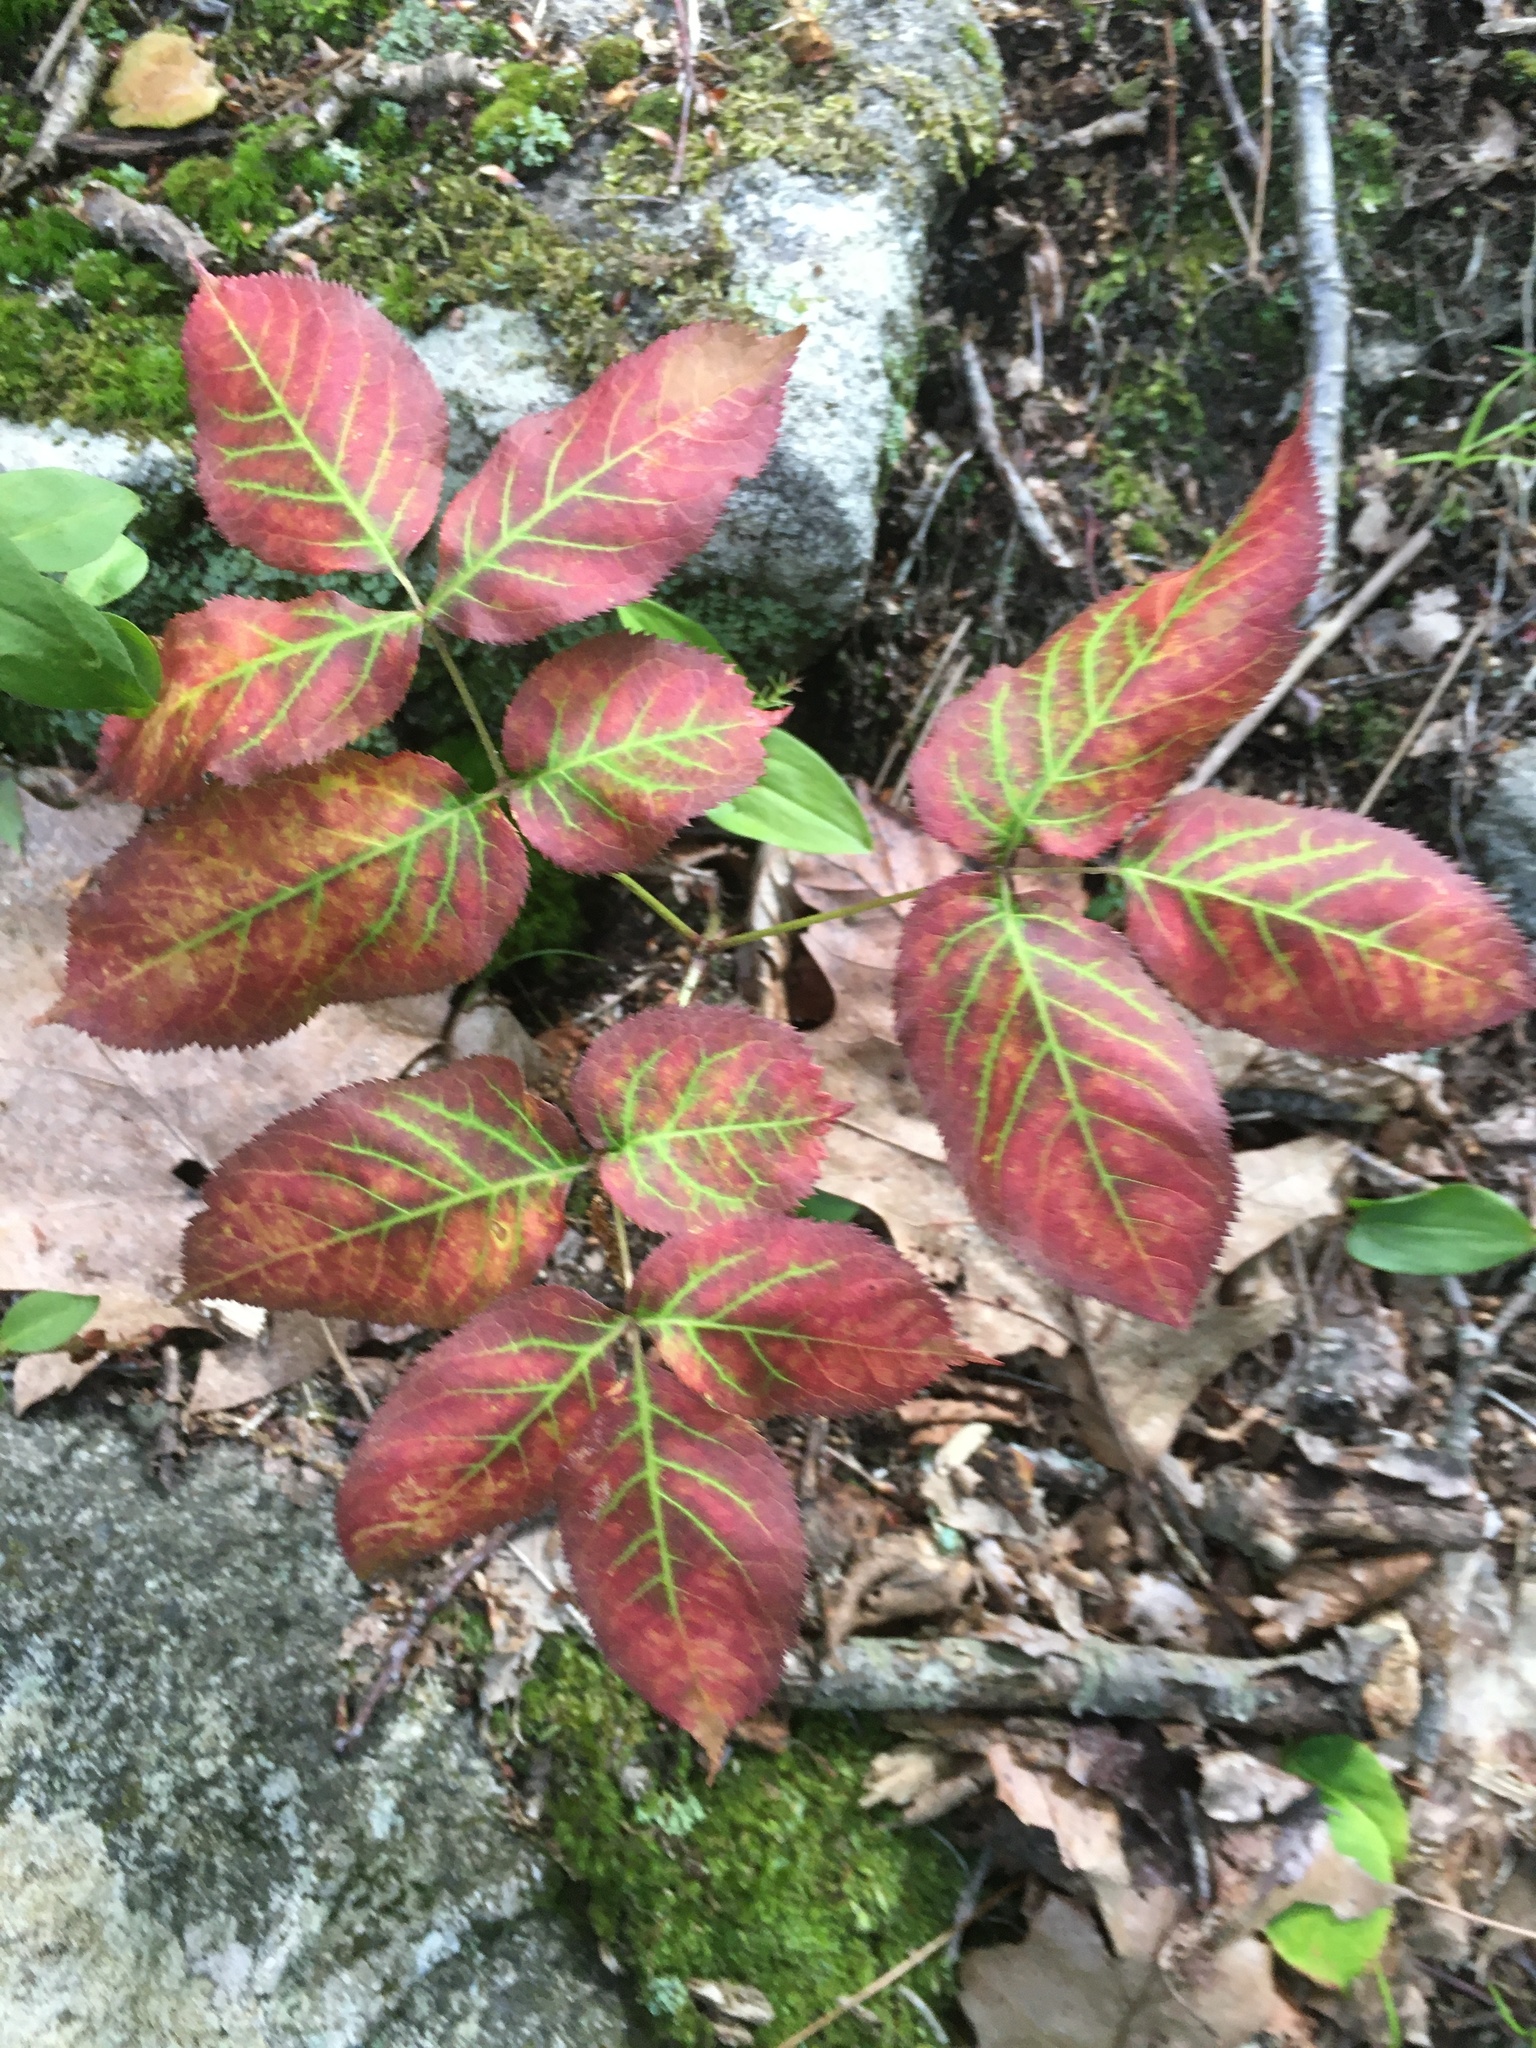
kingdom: Plantae
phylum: Tracheophyta
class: Magnoliopsida
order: Apiales
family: Araliaceae
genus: Aralia
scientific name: Aralia nudicaulis
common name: Wild sarsaparilla
